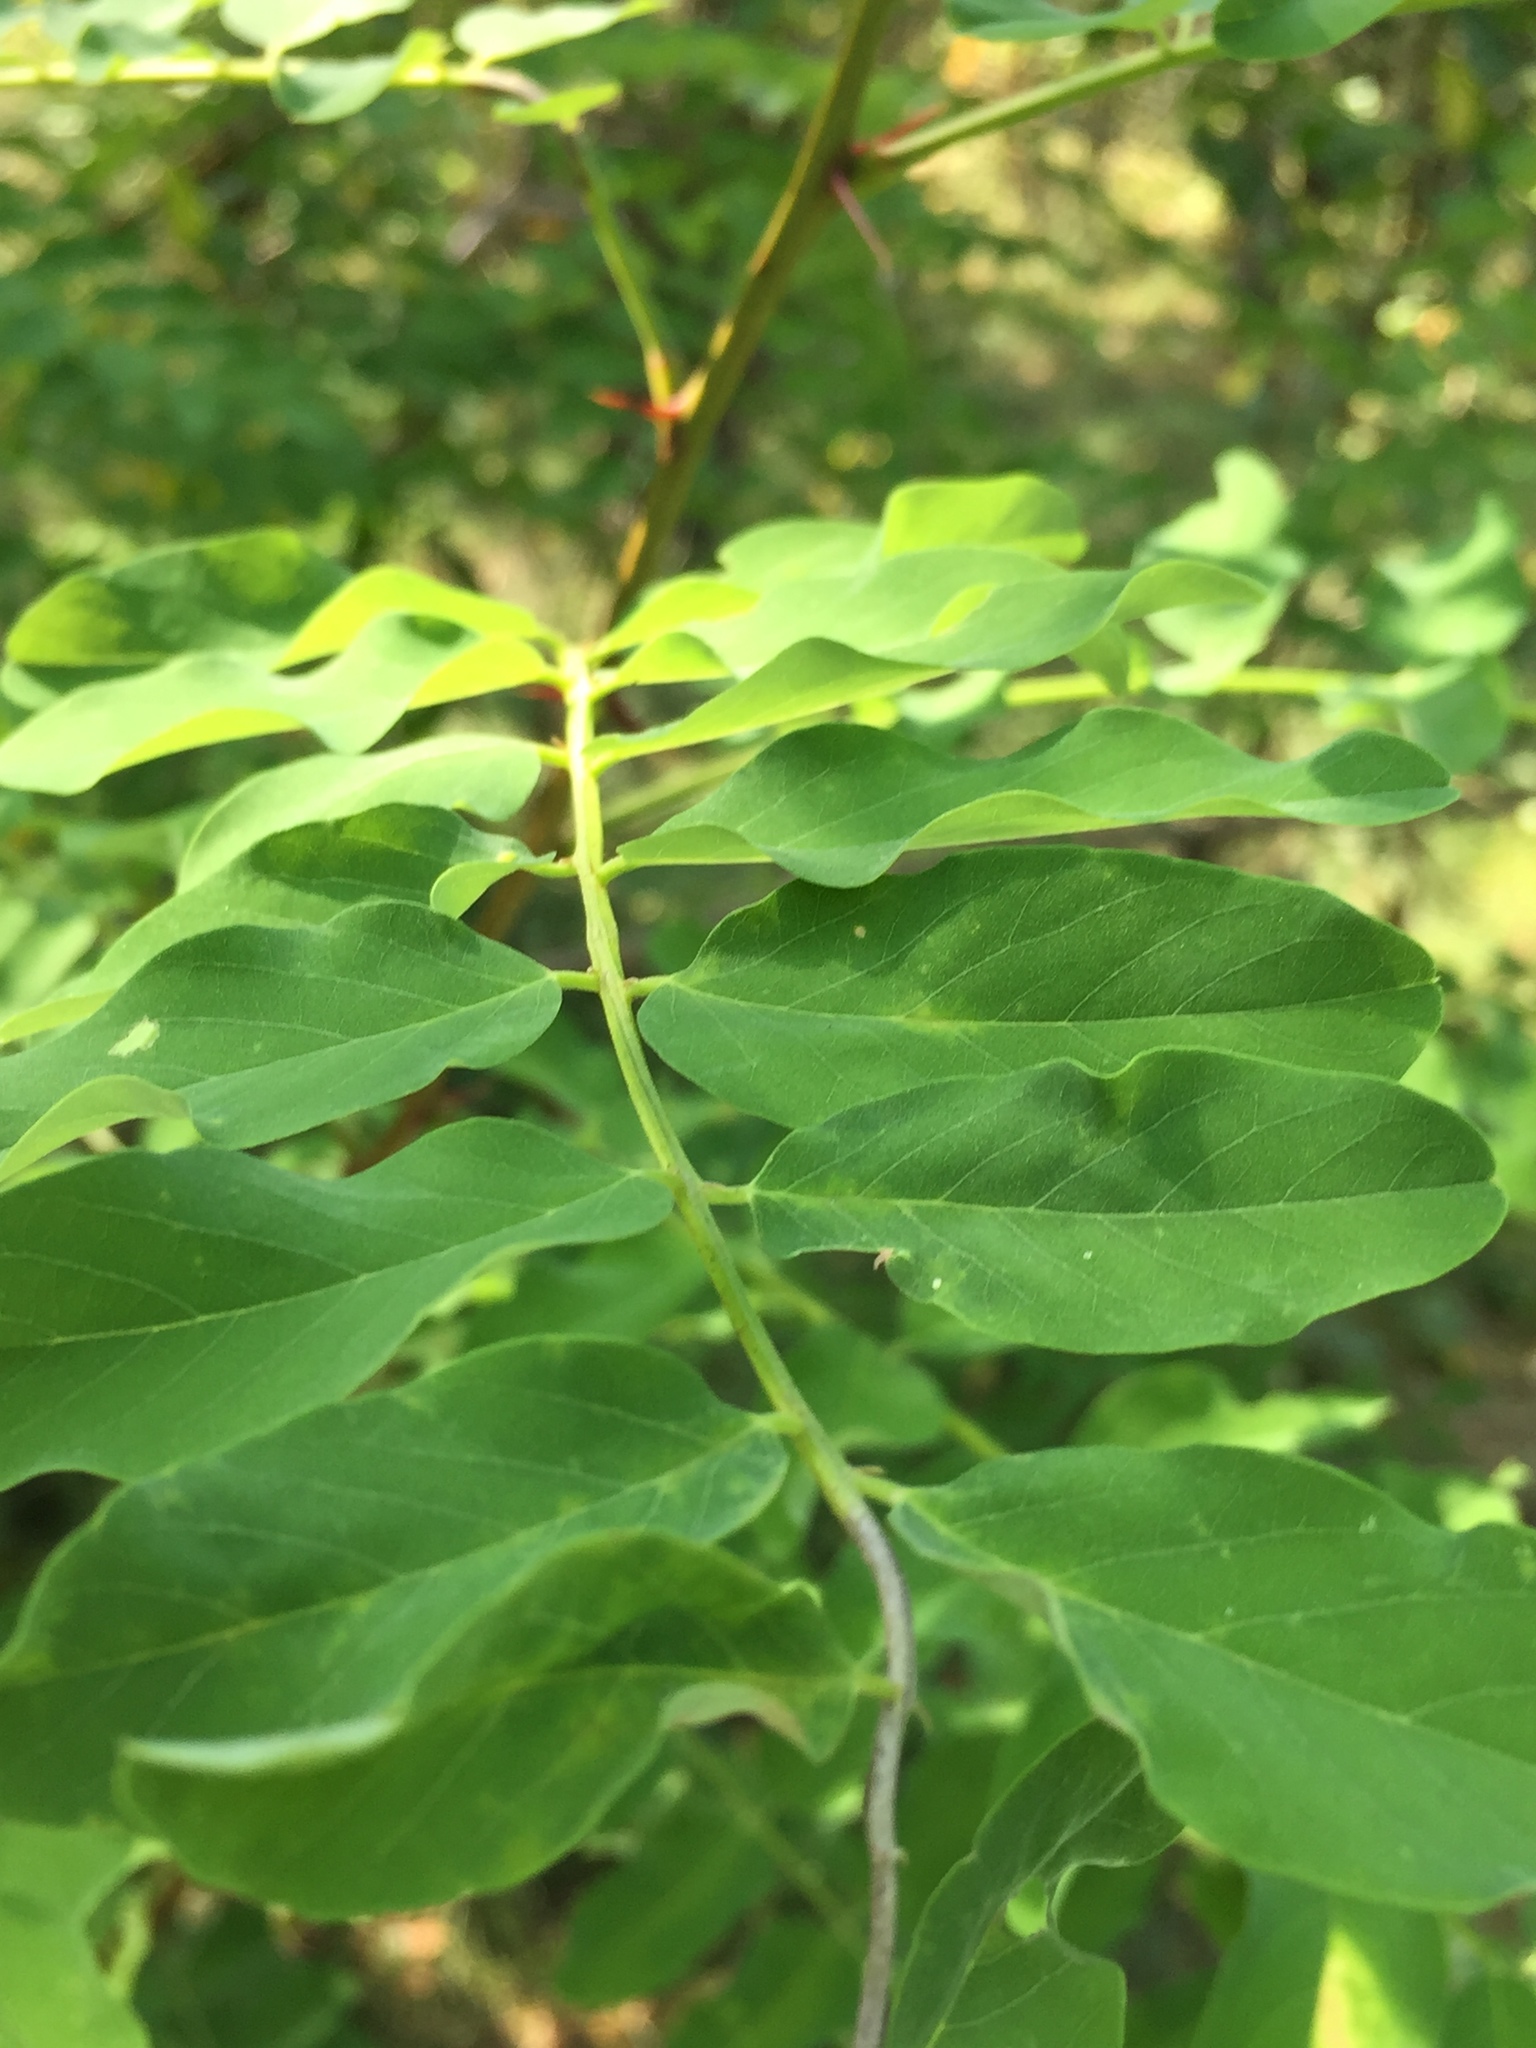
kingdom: Plantae
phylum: Tracheophyta
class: Magnoliopsida
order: Fabales
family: Fabaceae
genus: Robinia
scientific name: Robinia pseudoacacia
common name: Black locust
